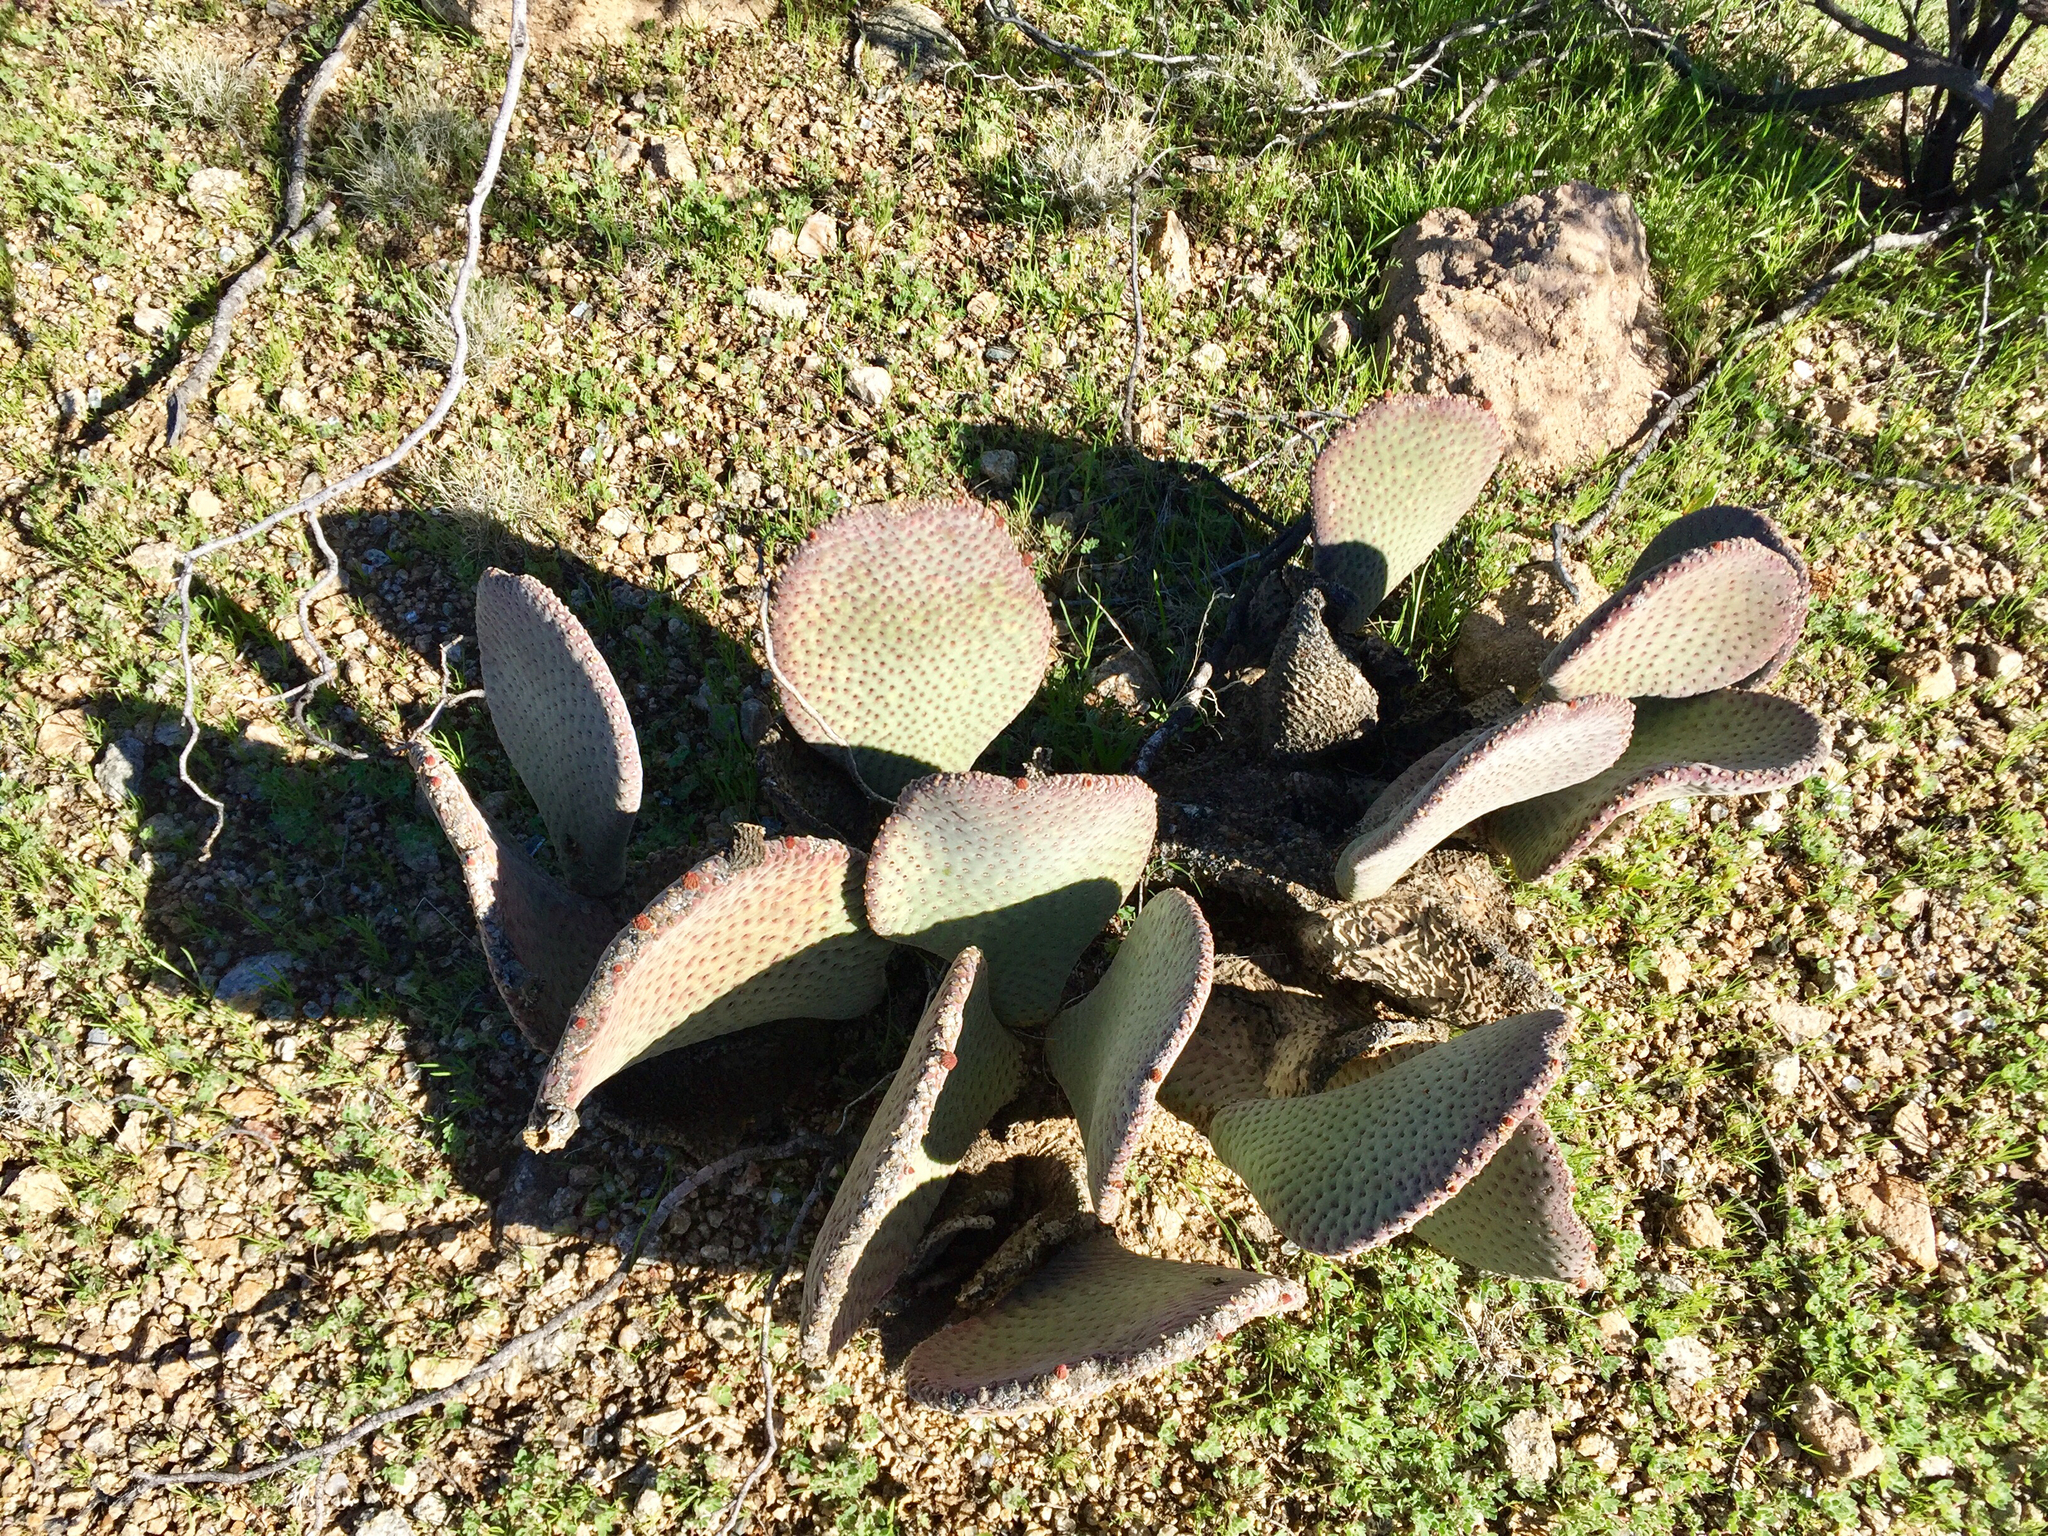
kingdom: Plantae
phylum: Tracheophyta
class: Magnoliopsida
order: Caryophyllales
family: Cactaceae
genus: Opuntia
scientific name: Opuntia basilaris
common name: Beavertail prickly-pear
